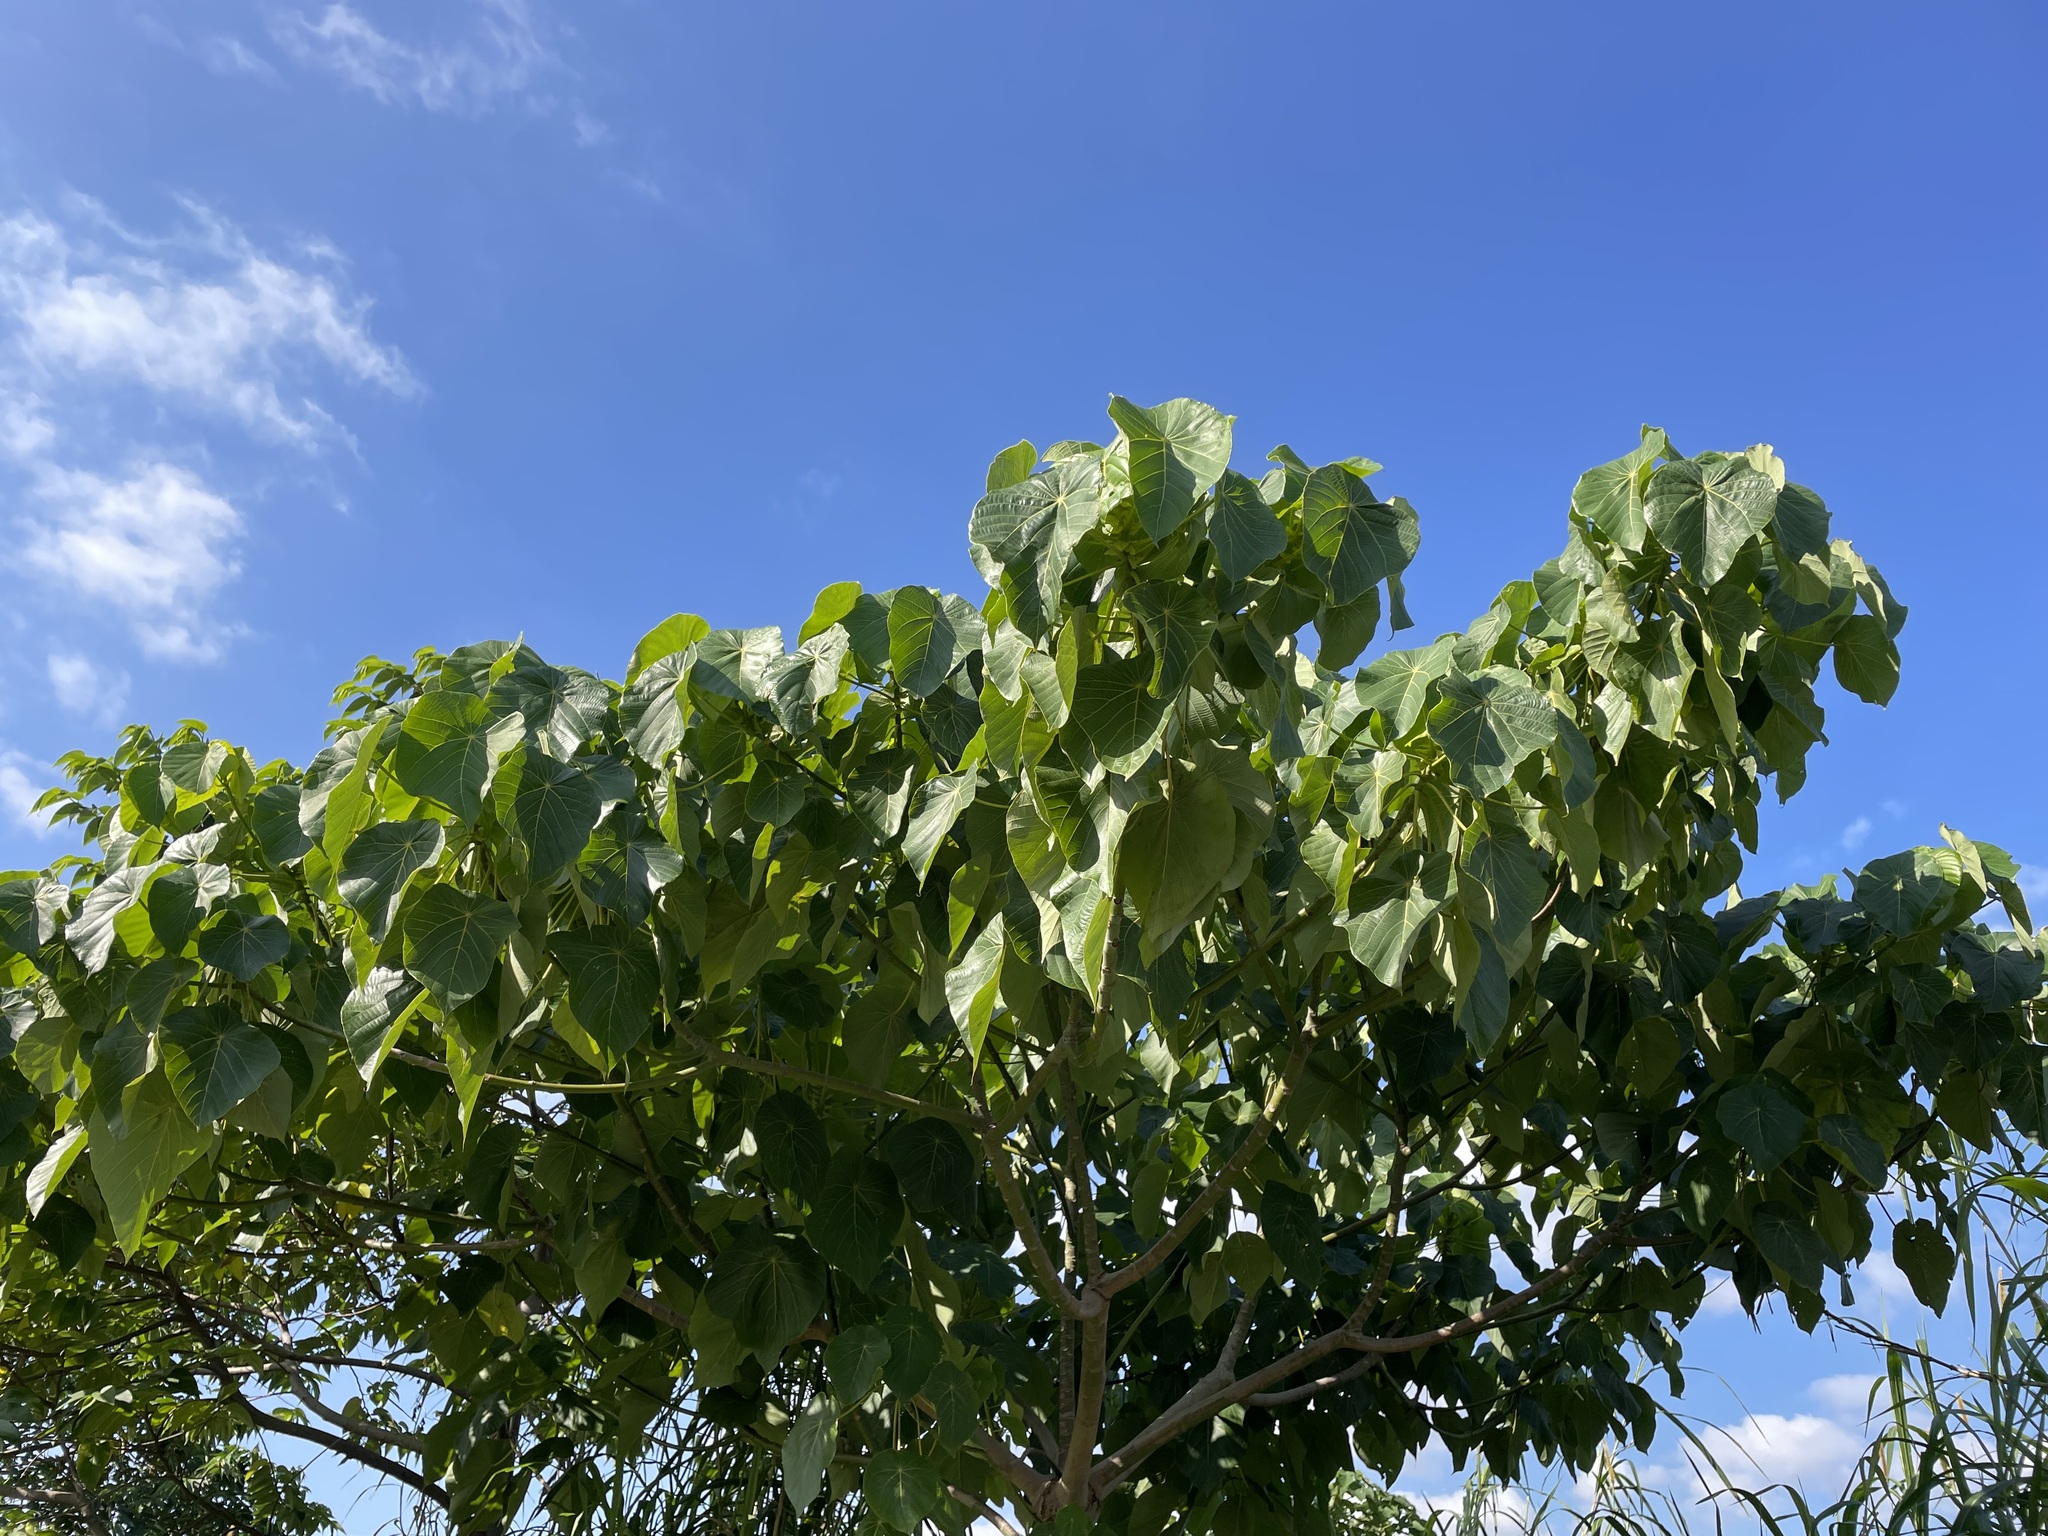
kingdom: Plantae
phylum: Tracheophyta
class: Magnoliopsida
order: Malpighiales
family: Euphorbiaceae
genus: Macaranga
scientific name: Macaranga tanarius
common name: Parasol leaf tree
